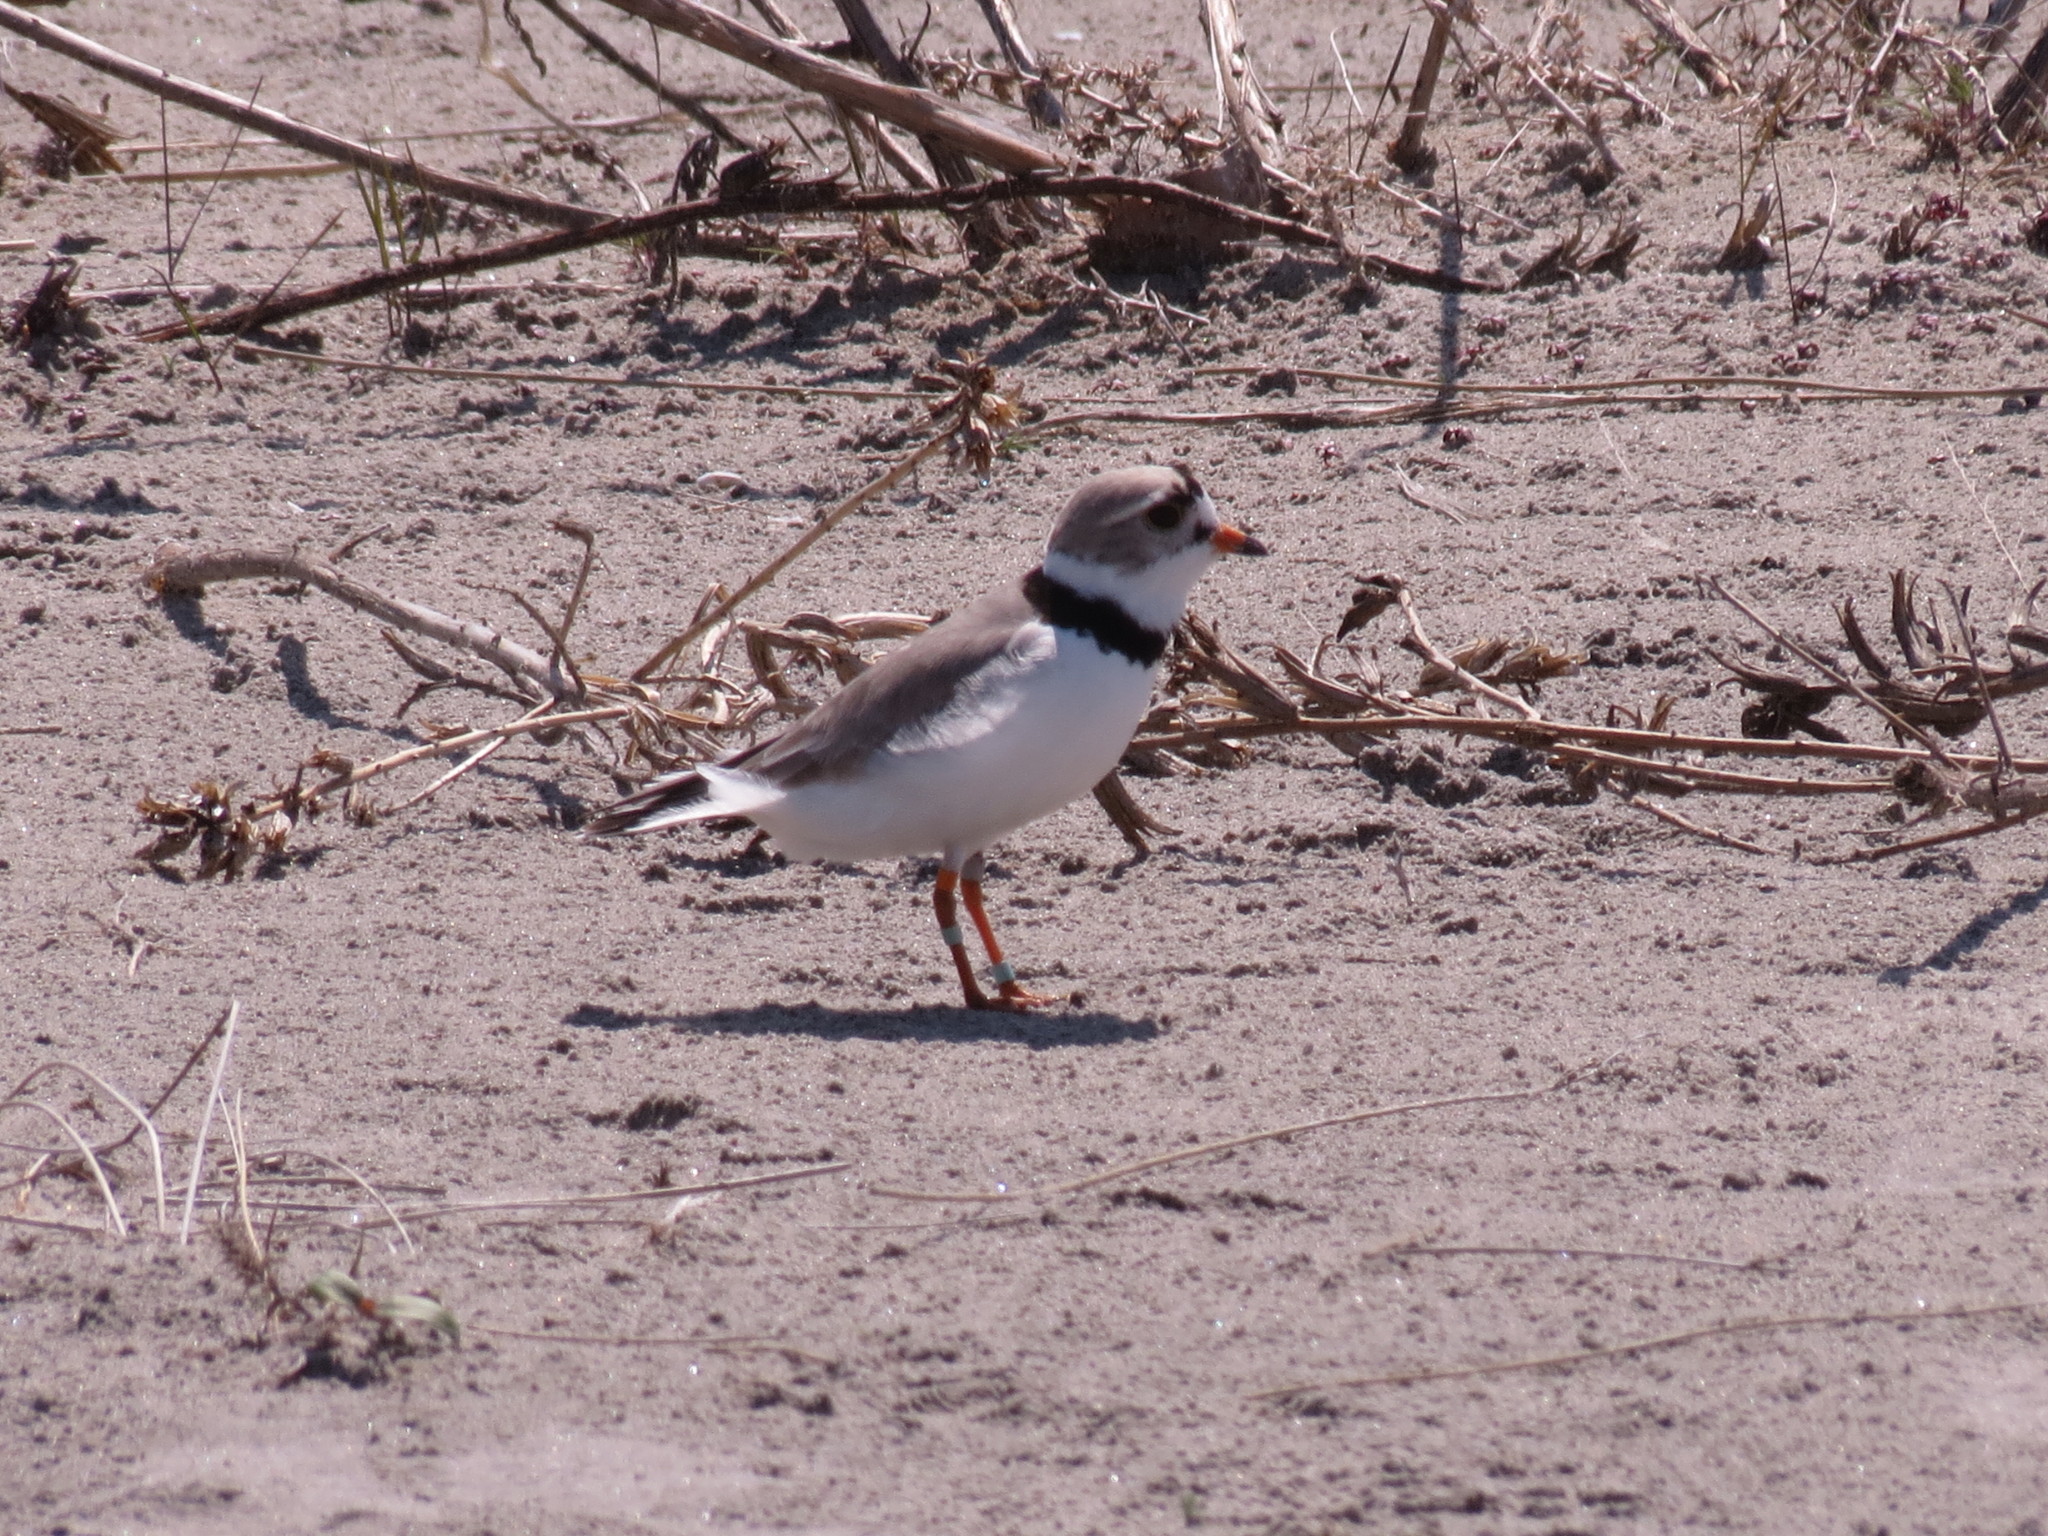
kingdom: Animalia
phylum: Chordata
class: Aves
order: Charadriiformes
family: Charadriidae
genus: Charadrius
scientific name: Charadrius melodus
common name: Piping plover
